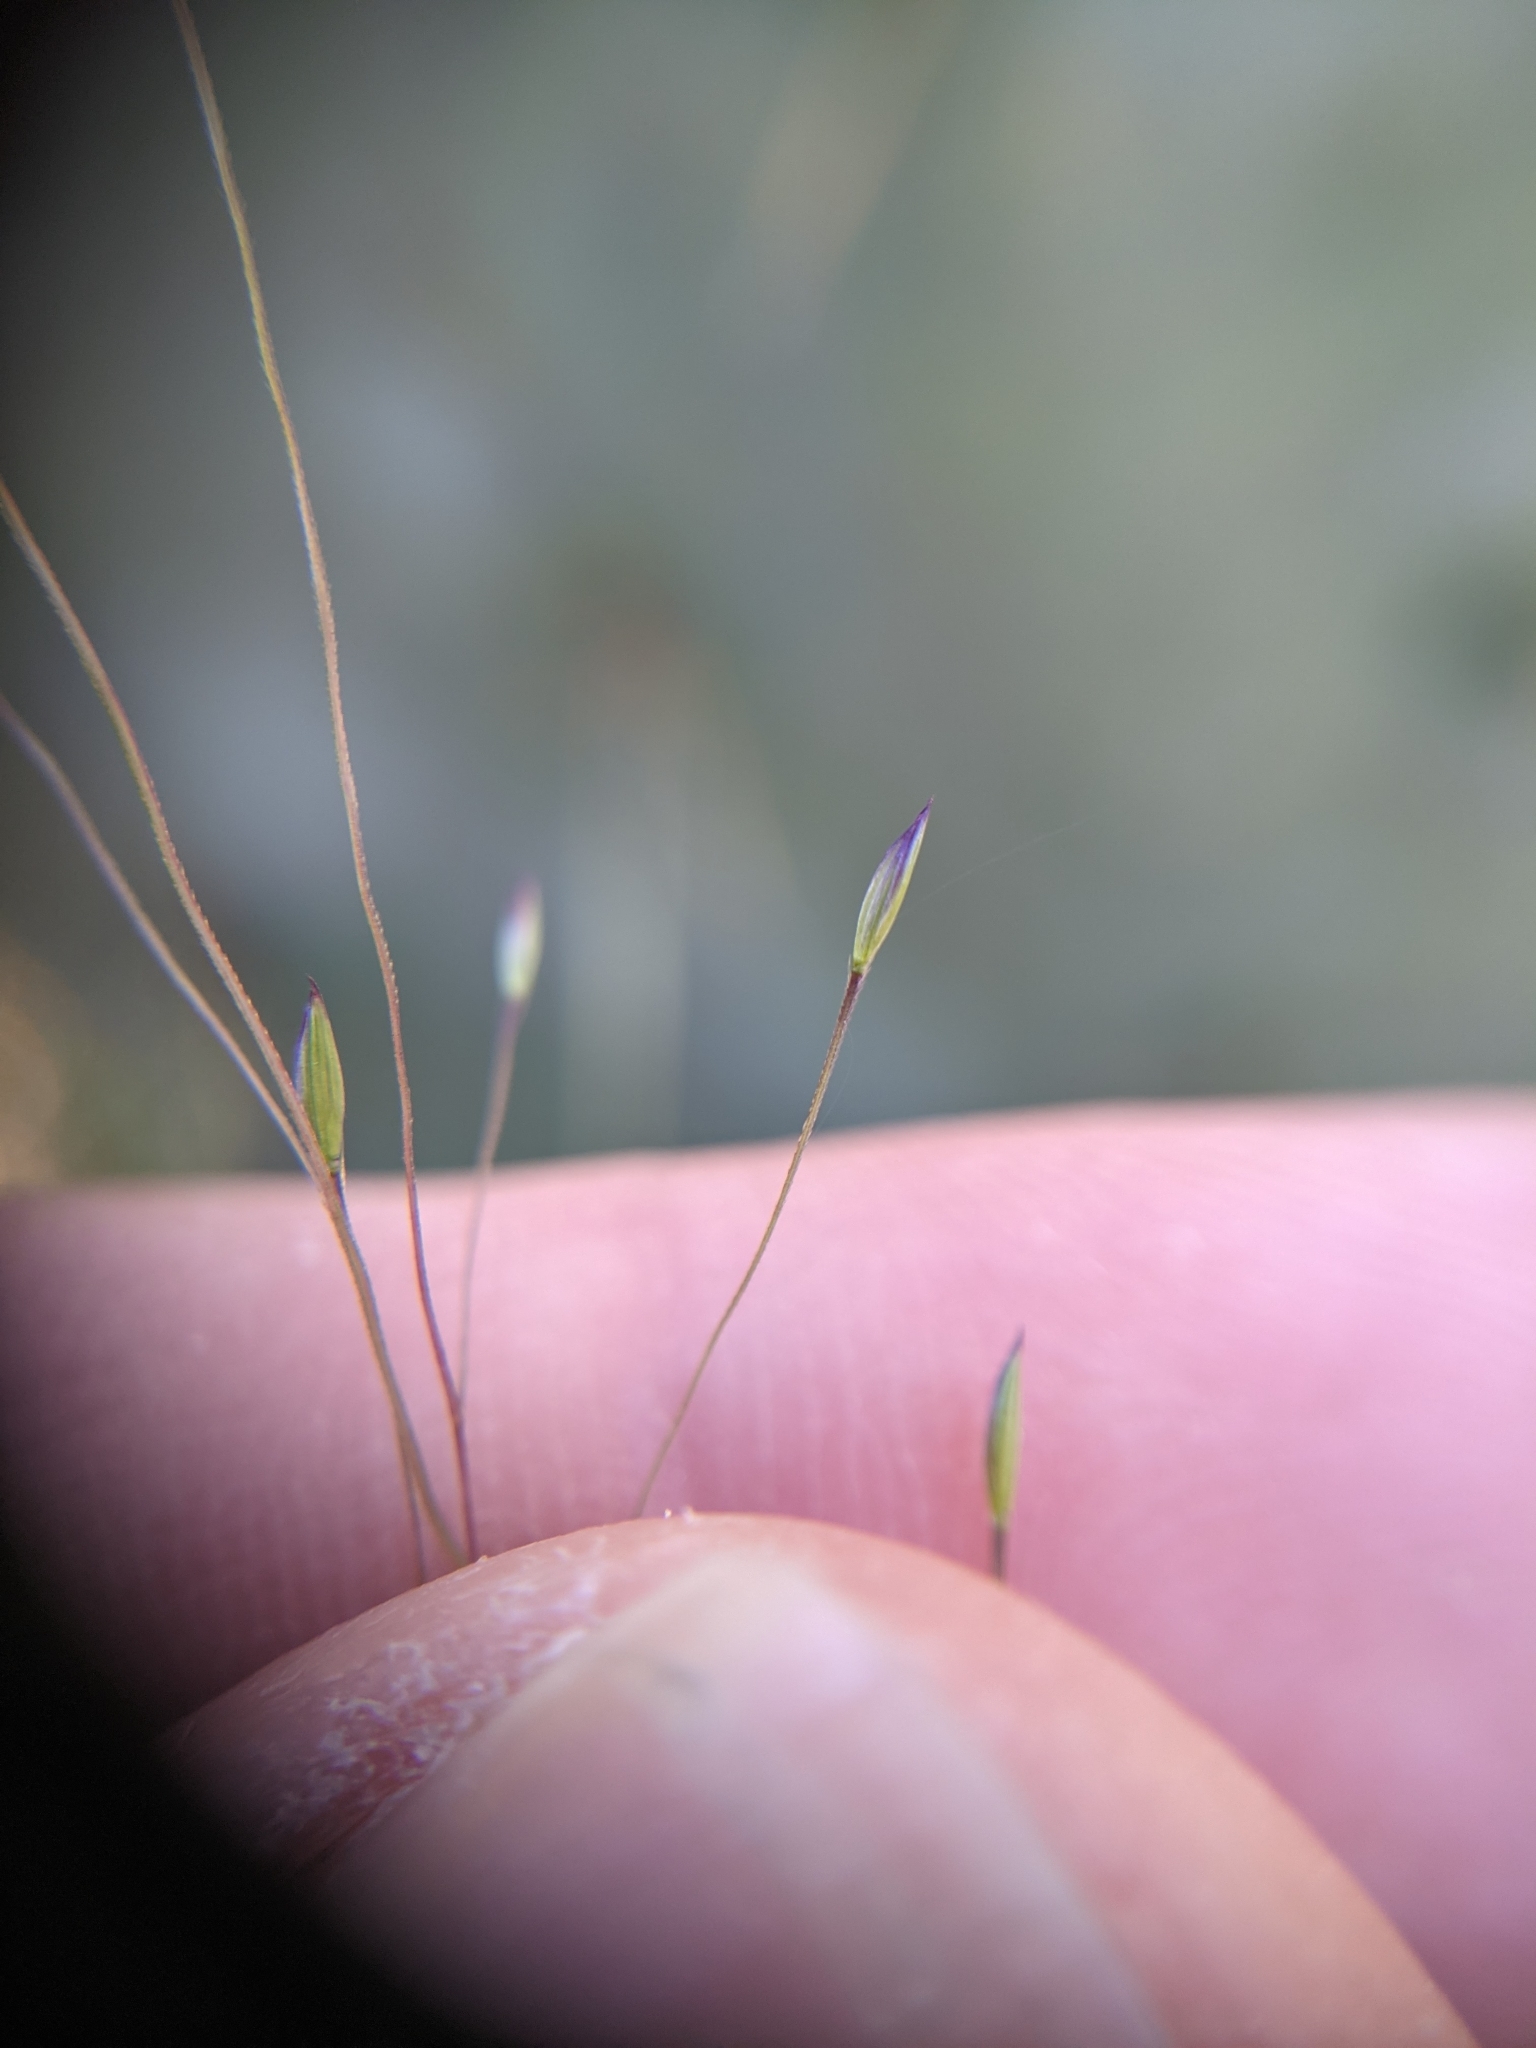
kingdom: Plantae
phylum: Tracheophyta
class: Liliopsida
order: Poales
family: Poaceae
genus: Digitaria
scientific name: Digitaria cognata
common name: Fall witchgrass
